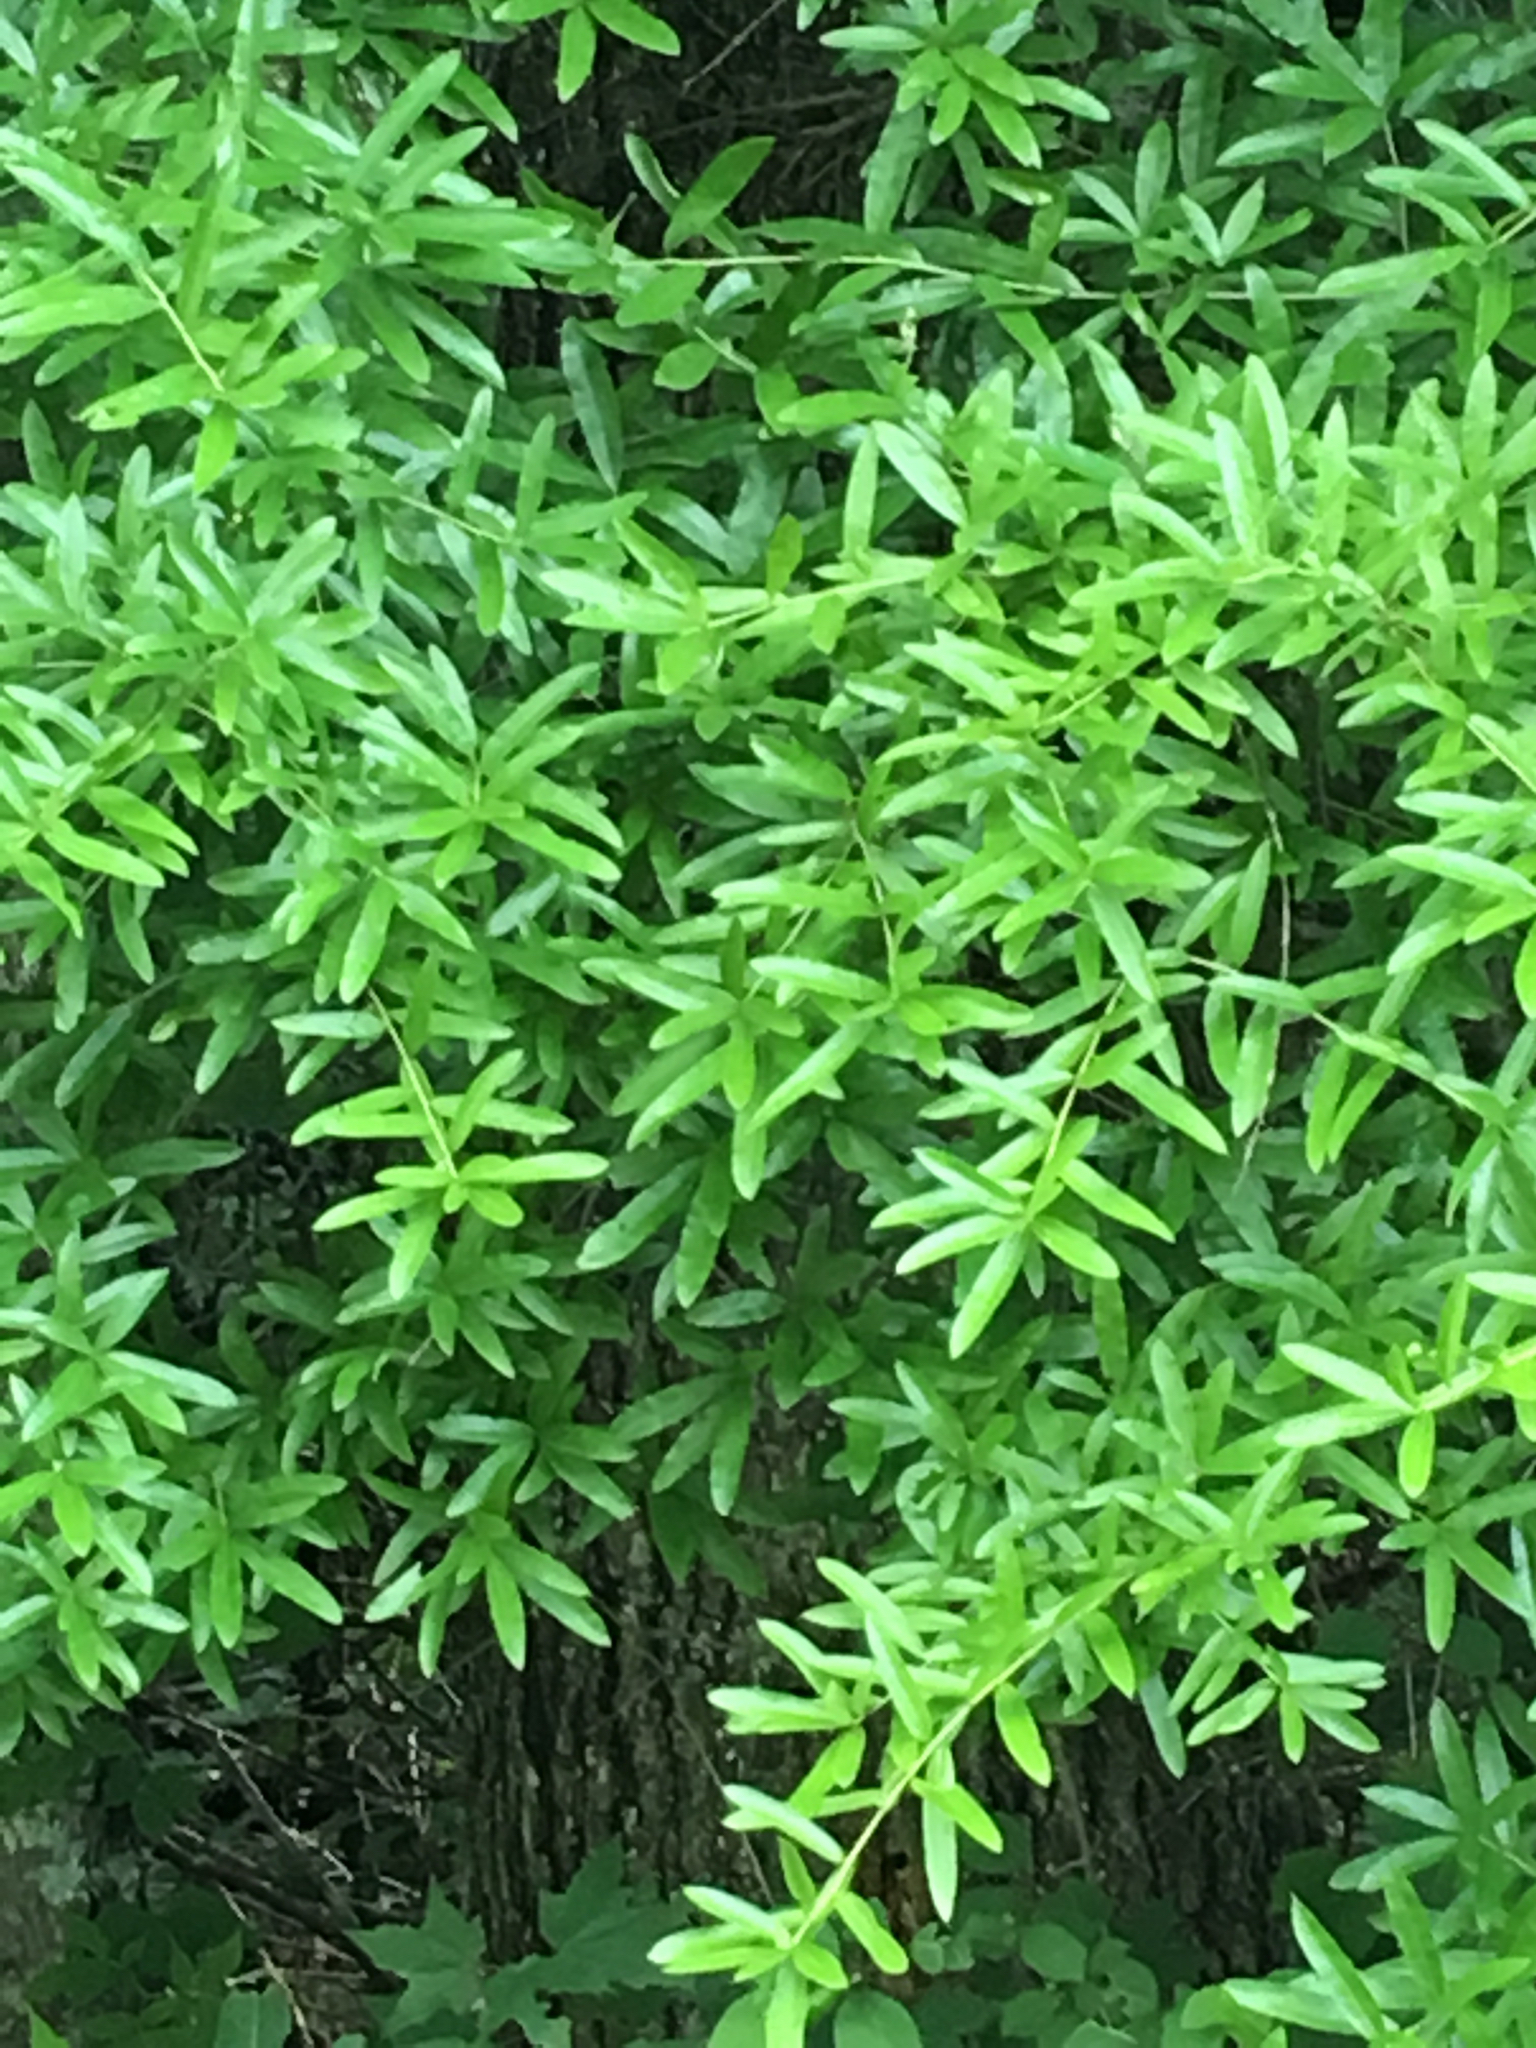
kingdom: Plantae
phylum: Tracheophyta
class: Magnoliopsida
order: Fagales
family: Fagaceae
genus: Quercus
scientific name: Quercus phellos
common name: Willow oak
